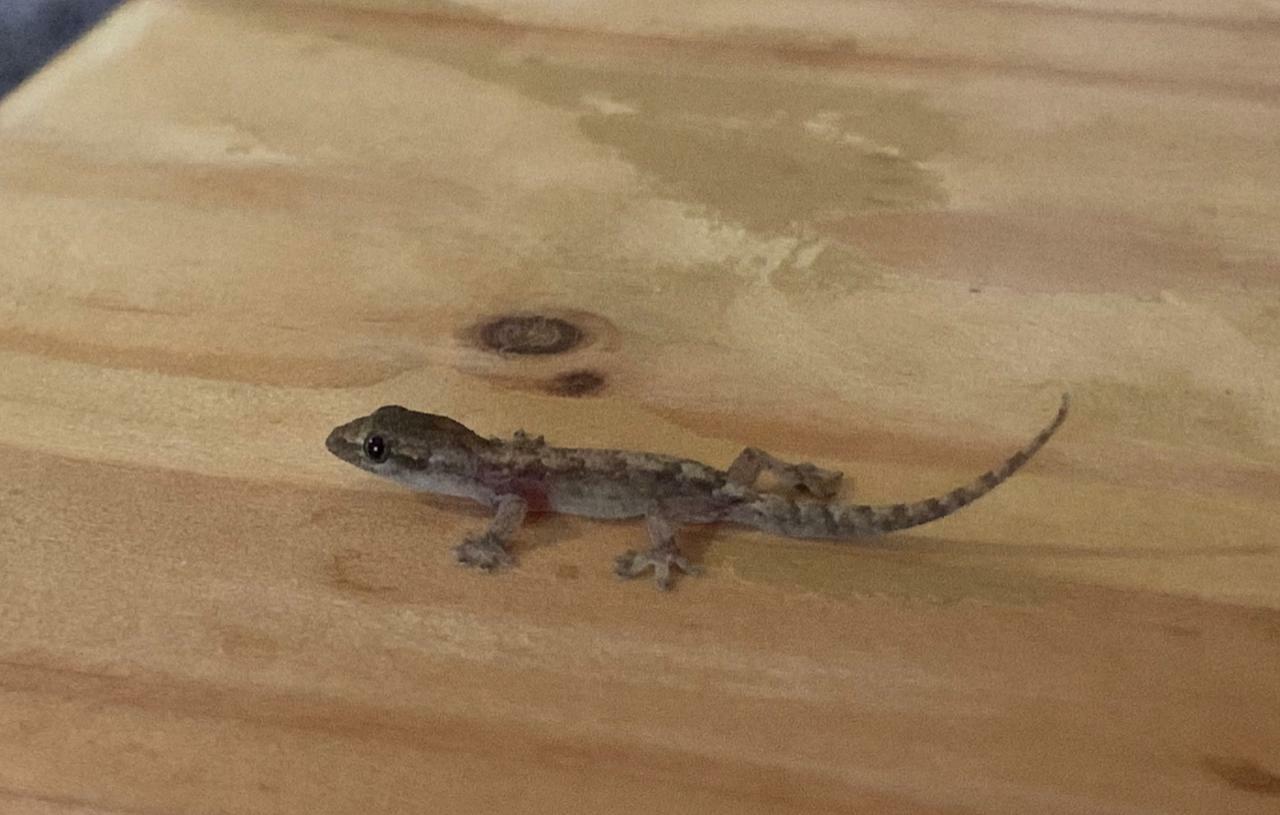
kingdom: Animalia
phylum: Chordata
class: Squamata
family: Gekkonidae
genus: Lepidodactylus
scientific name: Lepidodactylus lugubris
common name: Mourning gecko
